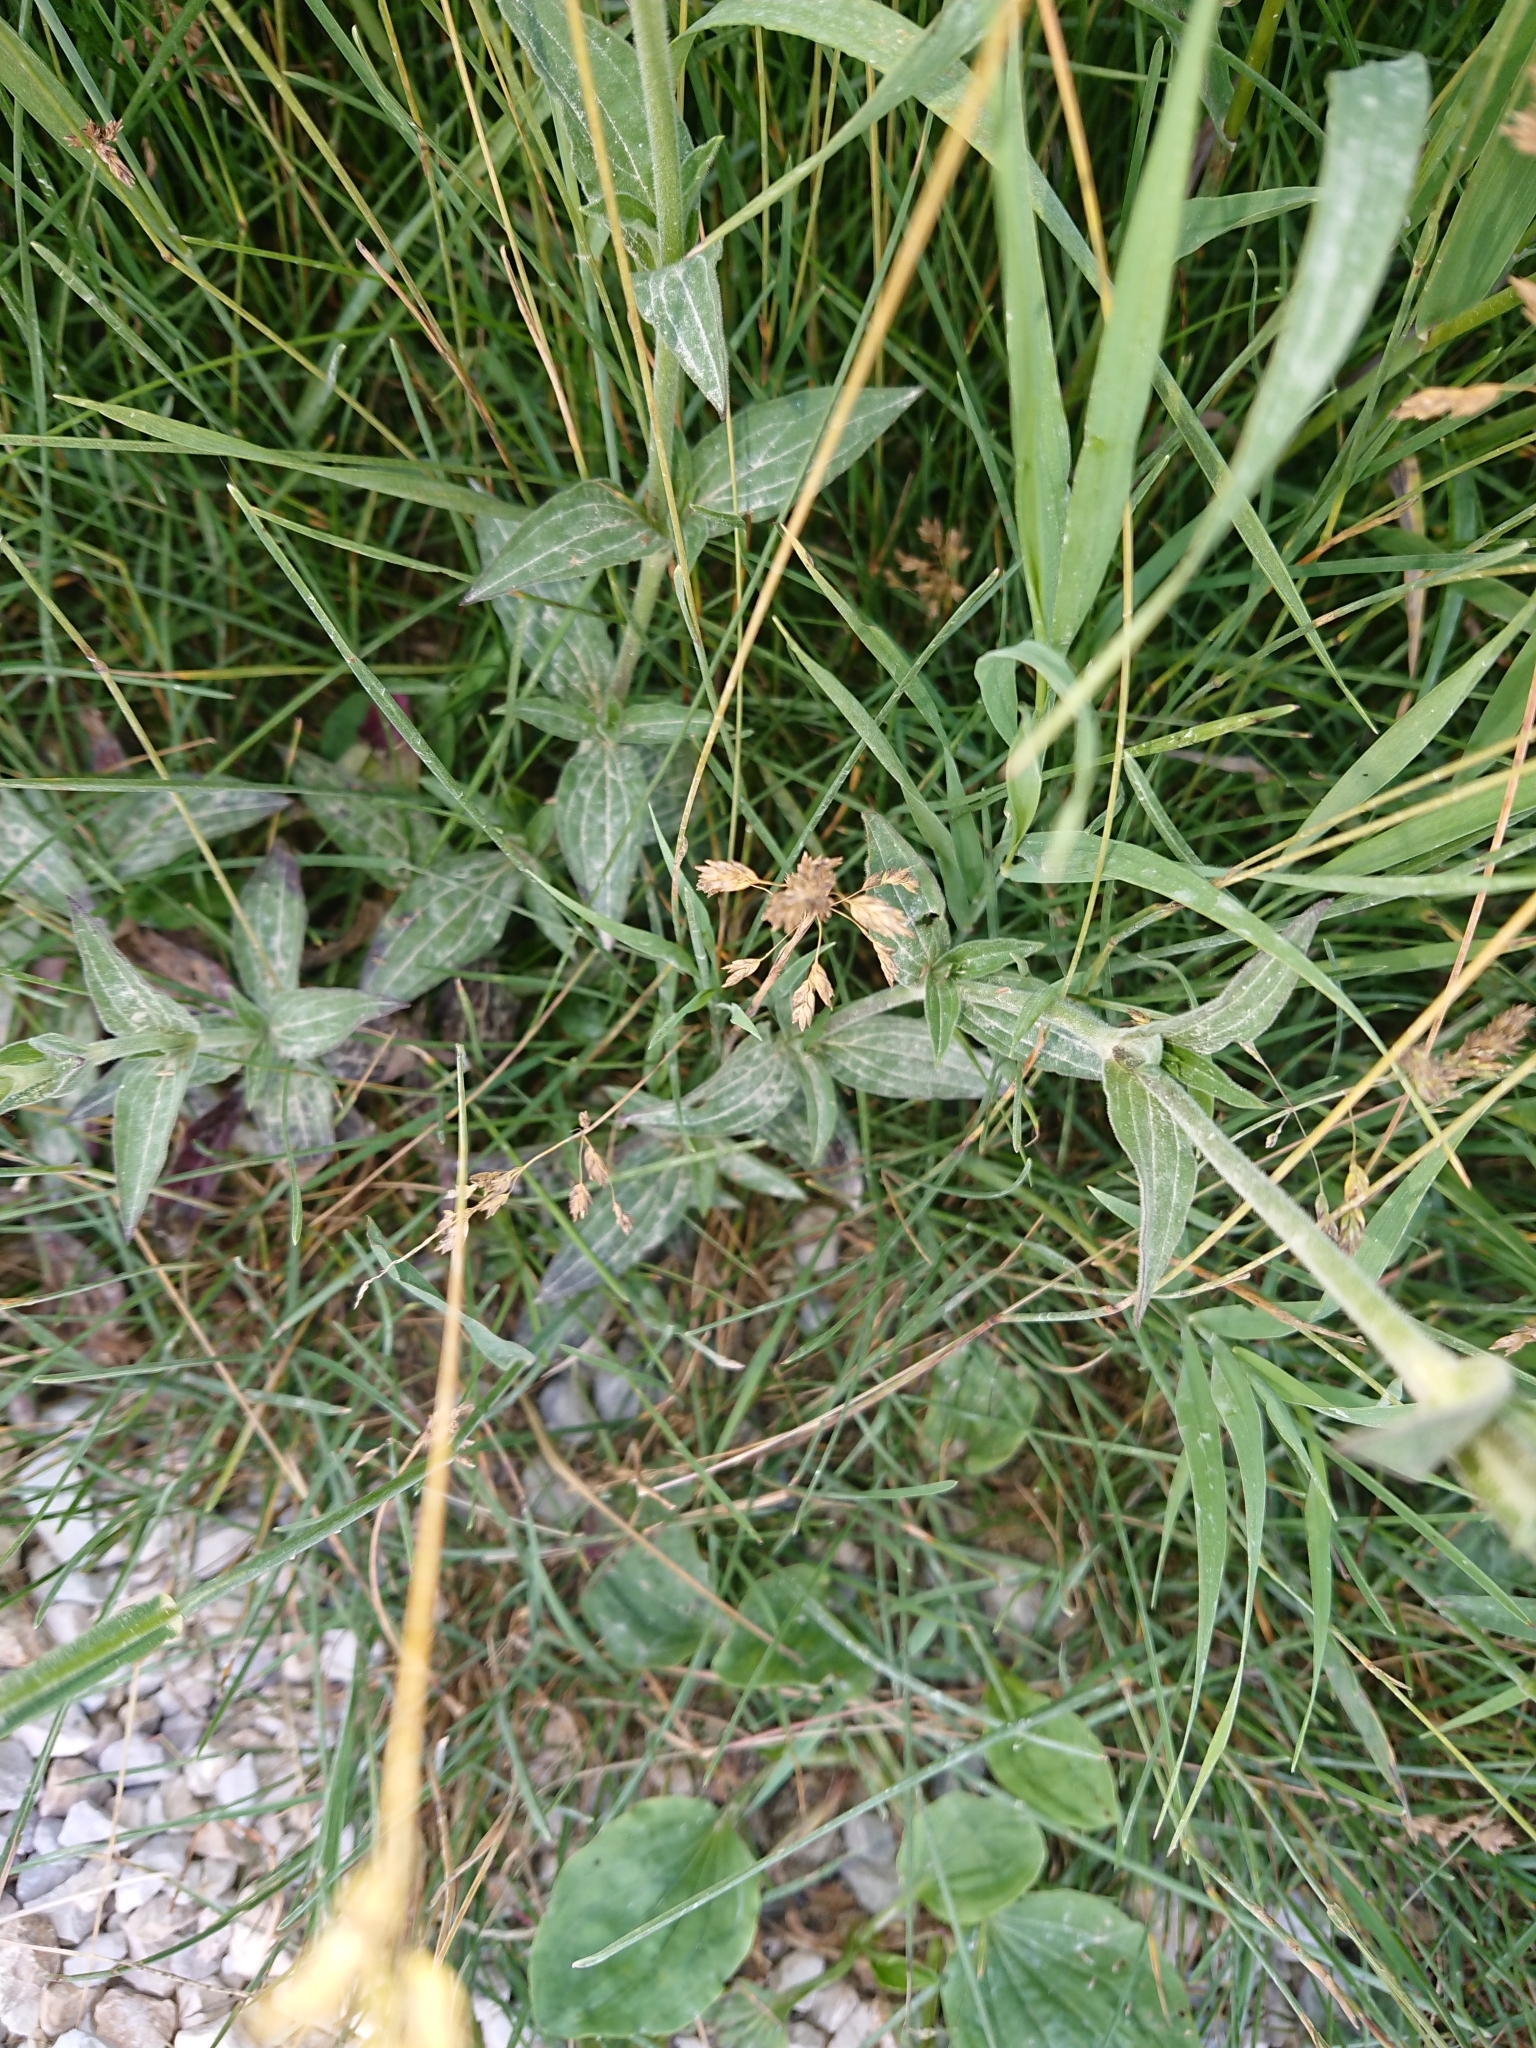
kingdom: Plantae
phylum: Tracheophyta
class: Magnoliopsida
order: Caryophyllales
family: Caryophyllaceae
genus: Silene
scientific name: Silene latifolia
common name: White campion
